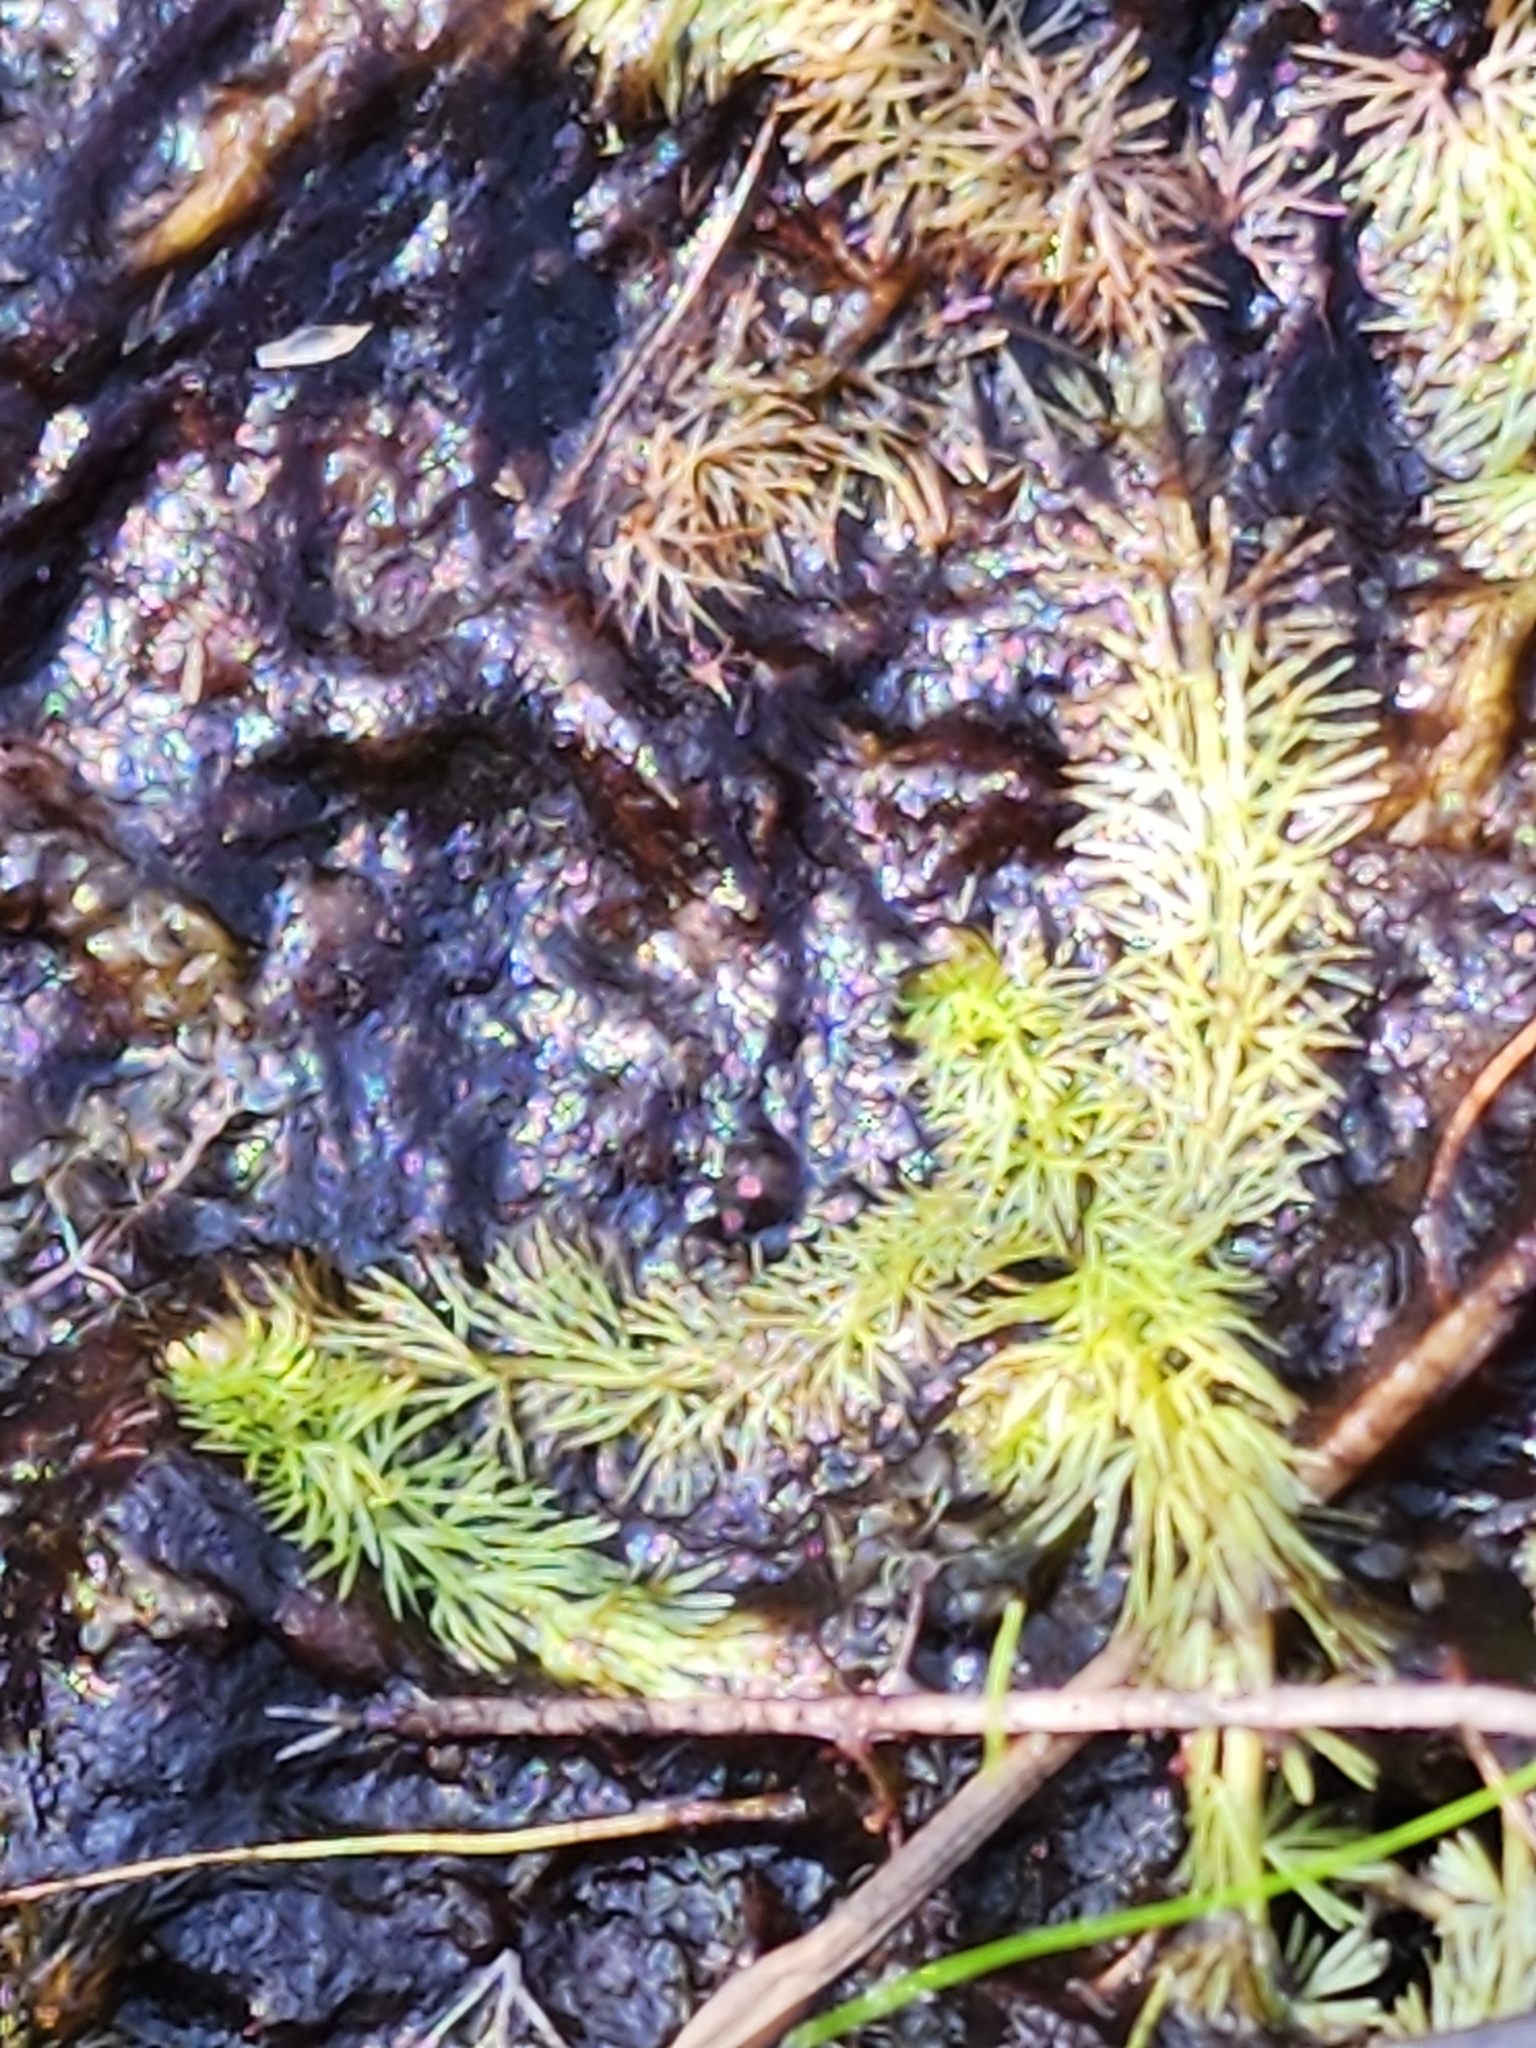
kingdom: Plantae
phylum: Tracheophyta
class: Magnoliopsida
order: Lamiales
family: Lentibulariaceae
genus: Utricularia
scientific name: Utricularia intermedia
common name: Intermediate bladderwort
